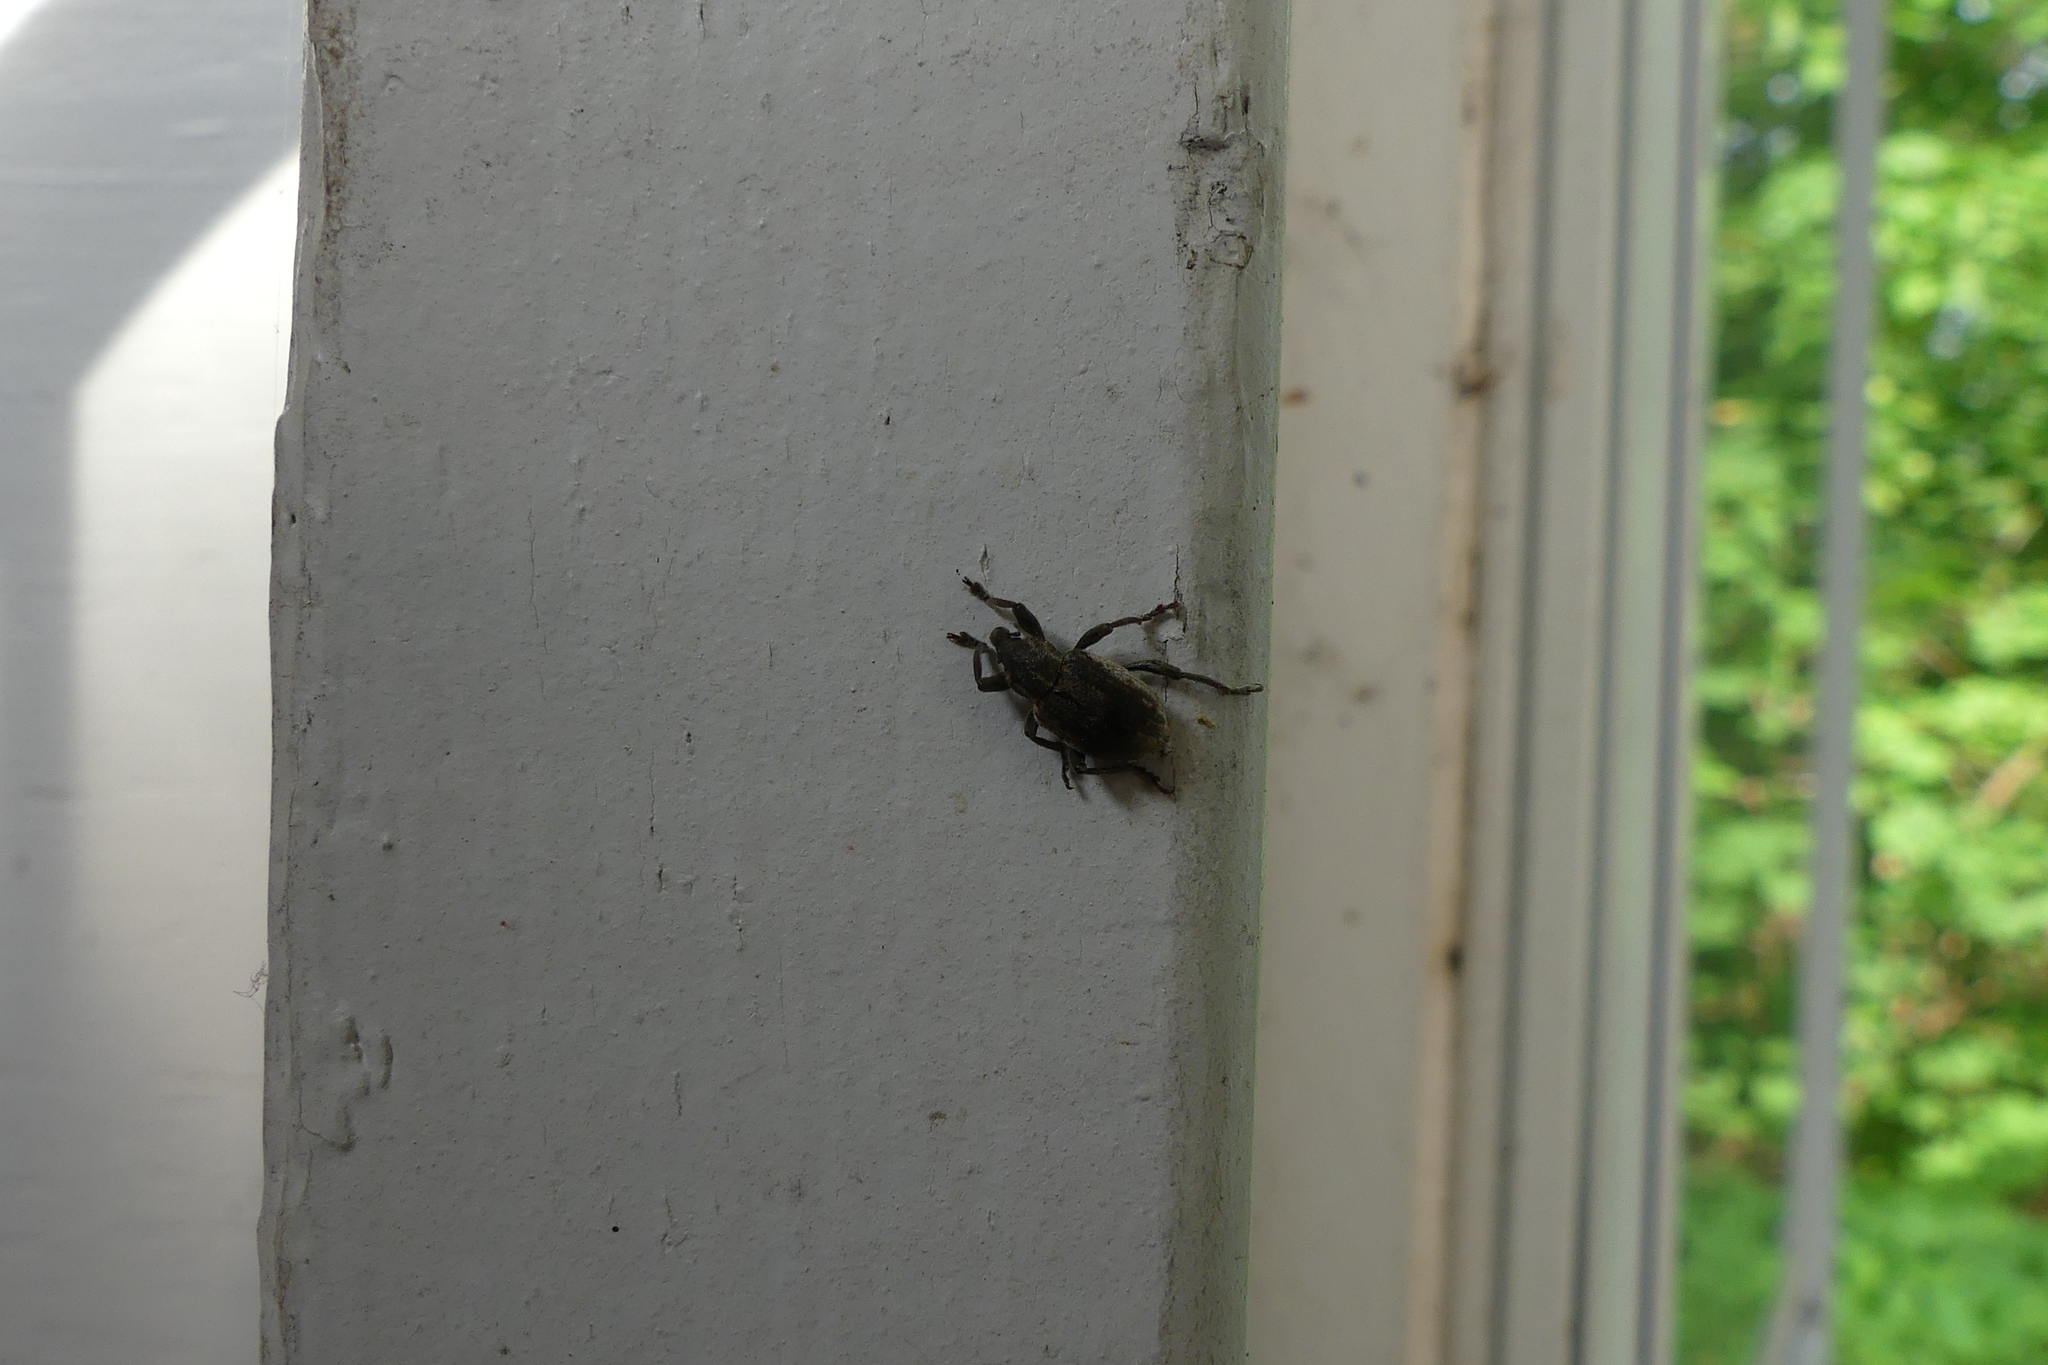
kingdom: Animalia
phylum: Arthropoda
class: Insecta
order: Coleoptera
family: Curculionidae
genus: Brachypera
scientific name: Brachypera zoilus
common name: Clover leaf weevil
